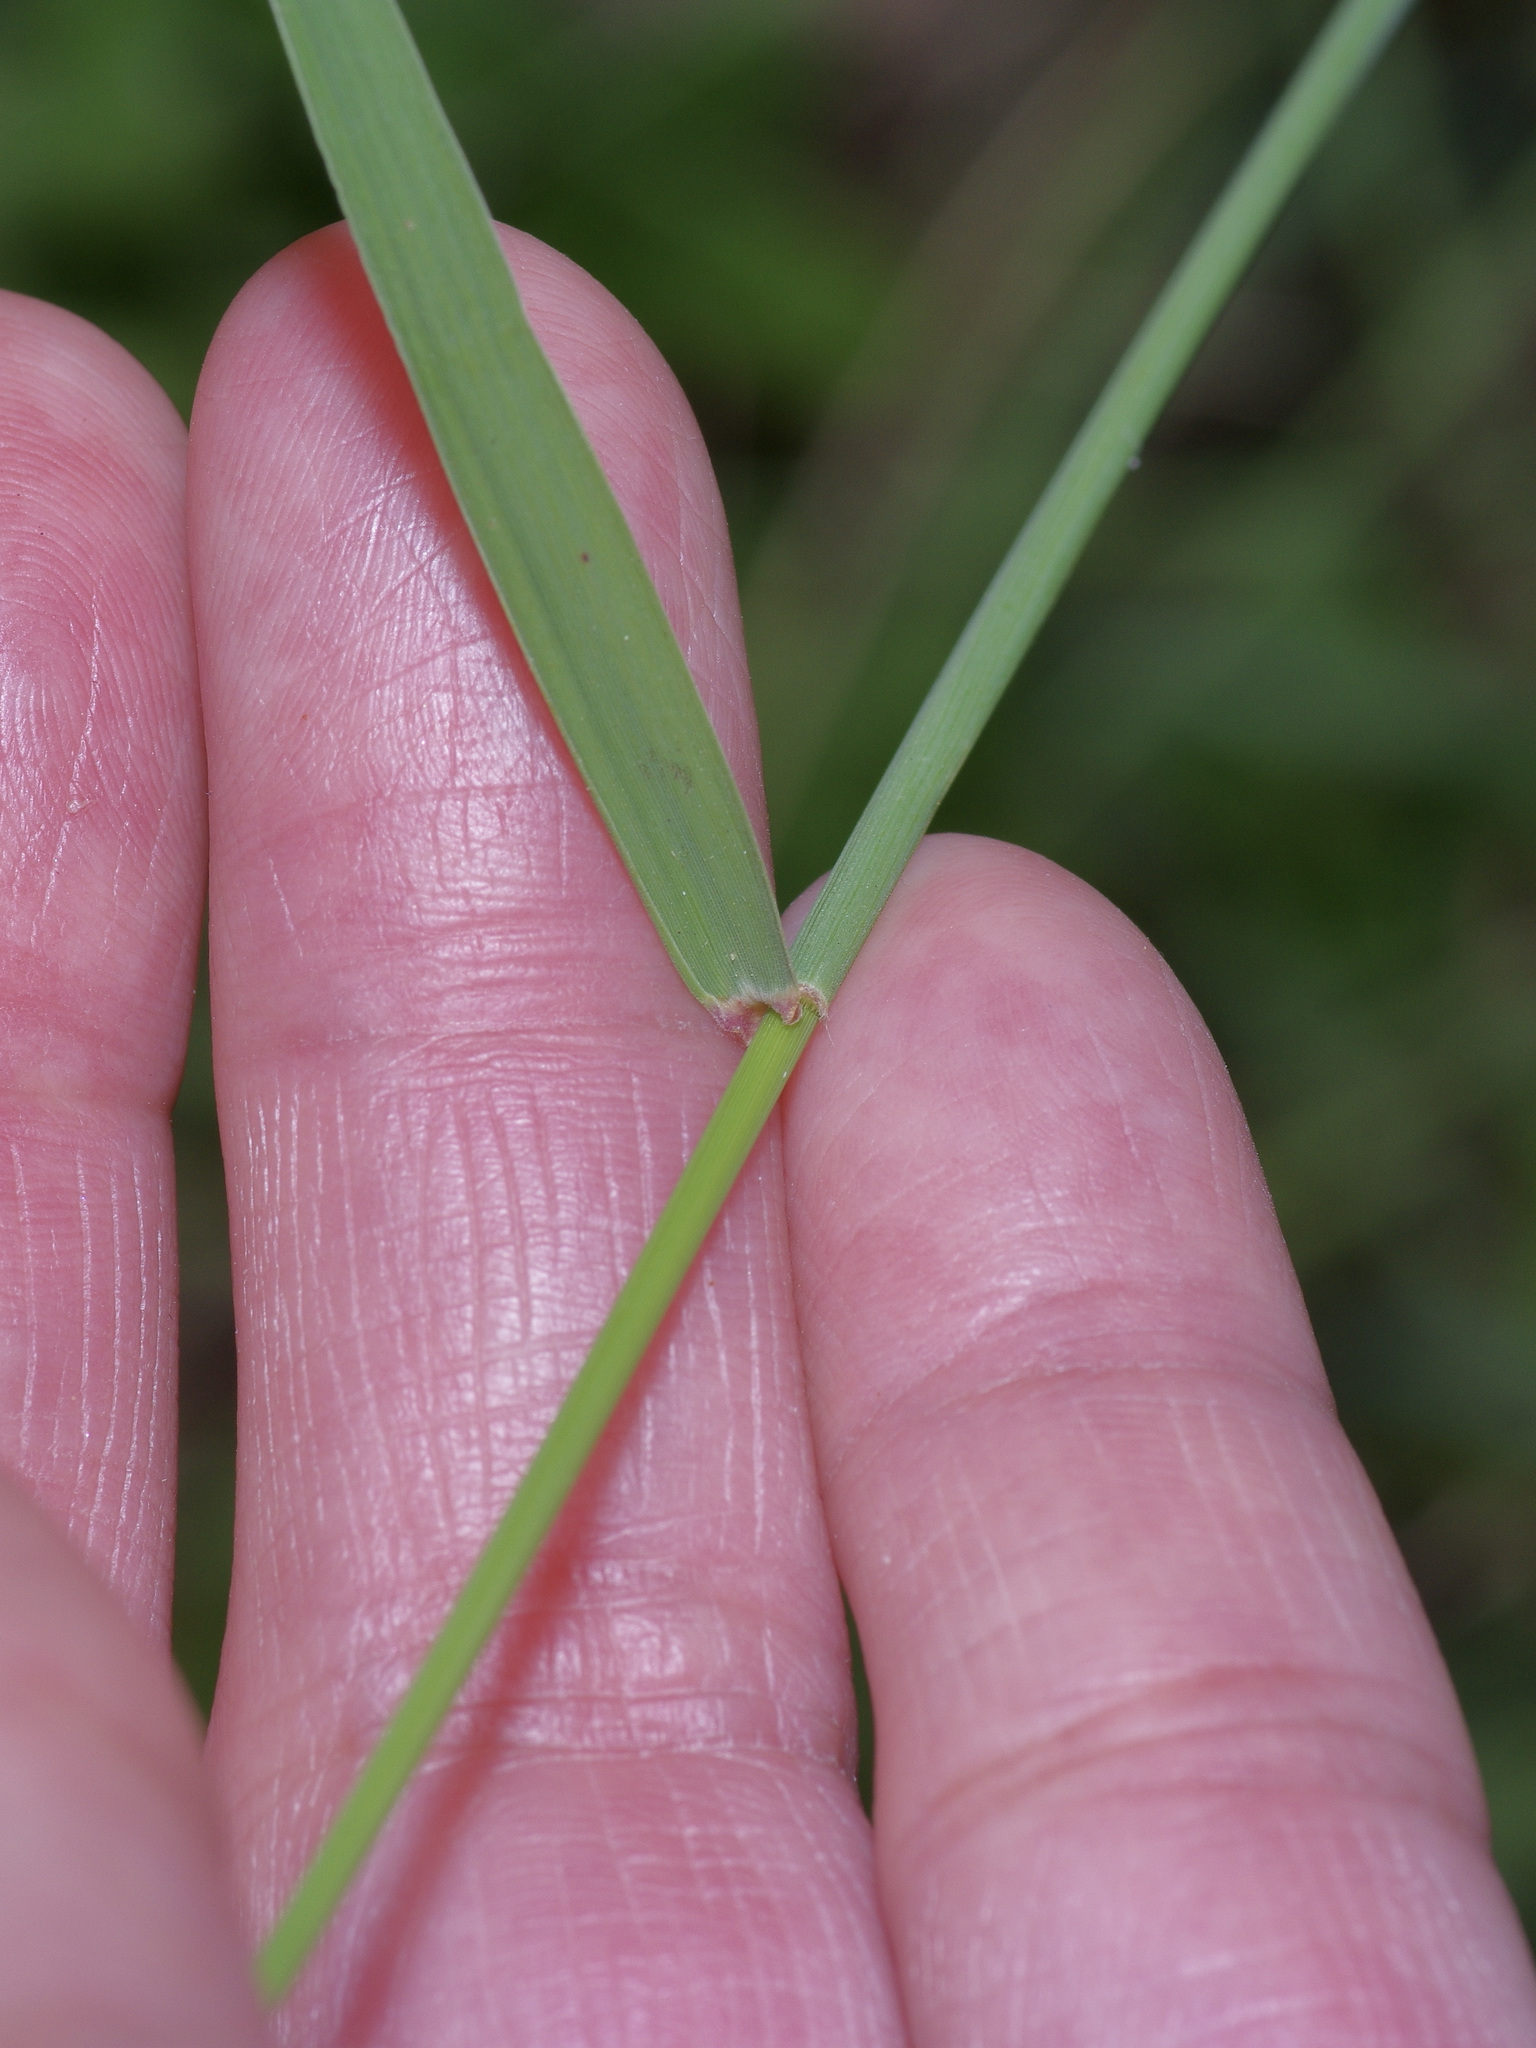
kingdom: Plantae
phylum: Tracheophyta
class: Liliopsida
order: Poales
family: Poaceae
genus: Bouteloua
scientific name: Bouteloua curtipendula
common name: Side-oats grama
